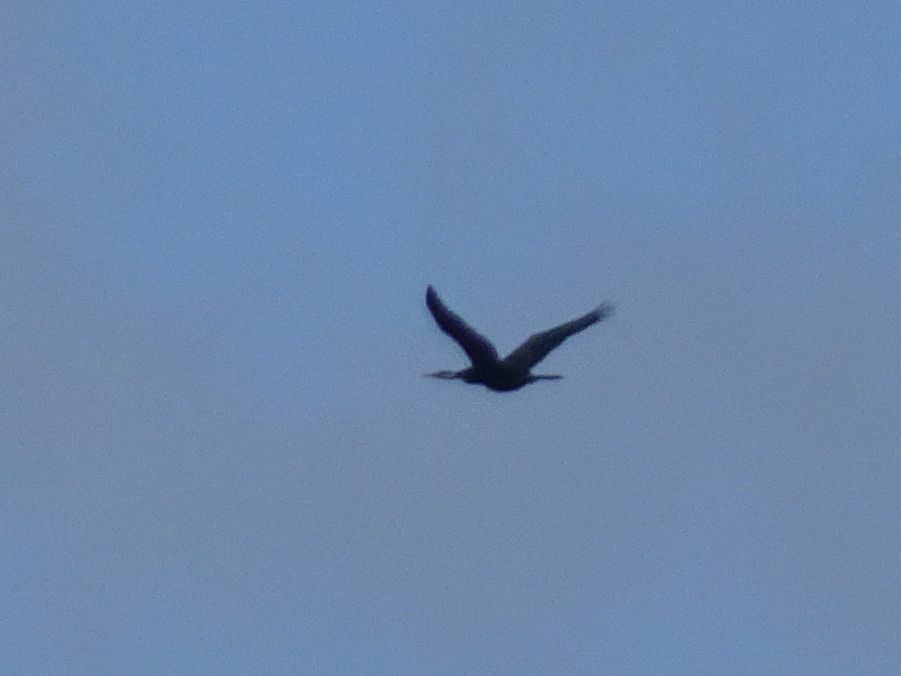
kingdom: Animalia
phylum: Chordata
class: Aves
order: Suliformes
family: Anhingidae
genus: Anhinga
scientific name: Anhinga rufa
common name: African darter
